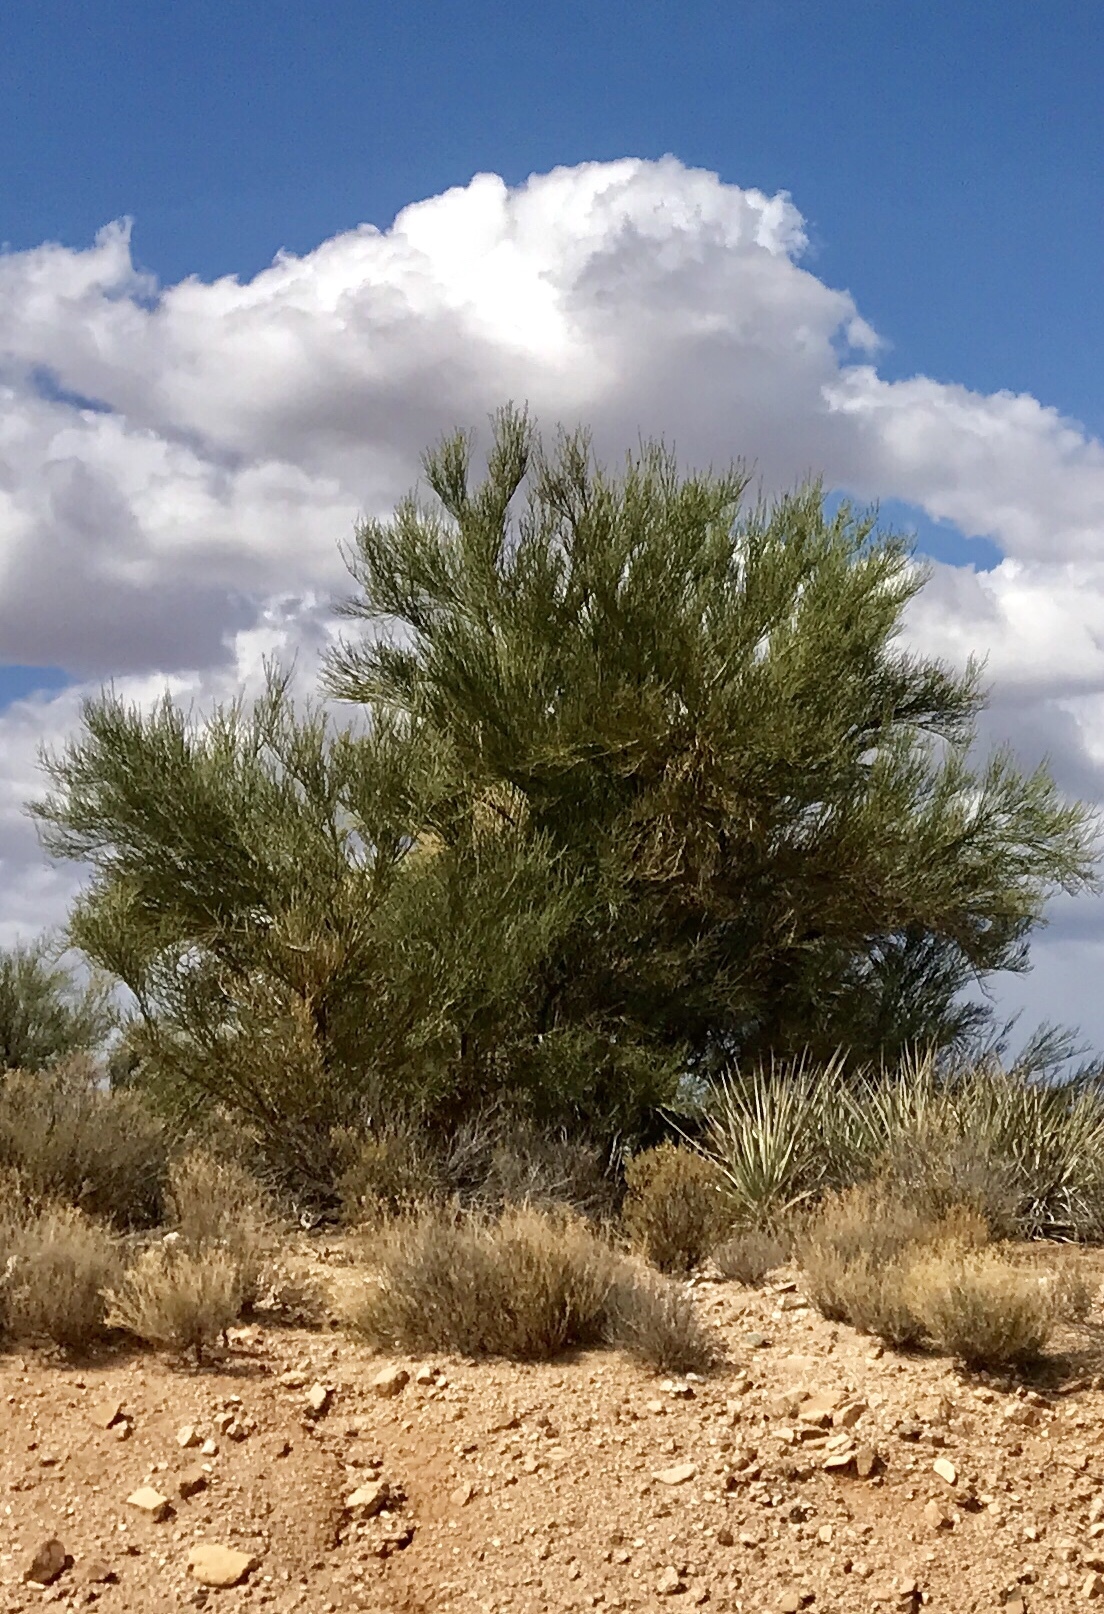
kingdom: Plantae
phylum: Tracheophyta
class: Magnoliopsida
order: Celastrales
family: Celastraceae
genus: Canotia
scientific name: Canotia holacantha
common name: Crucifixion thorns
